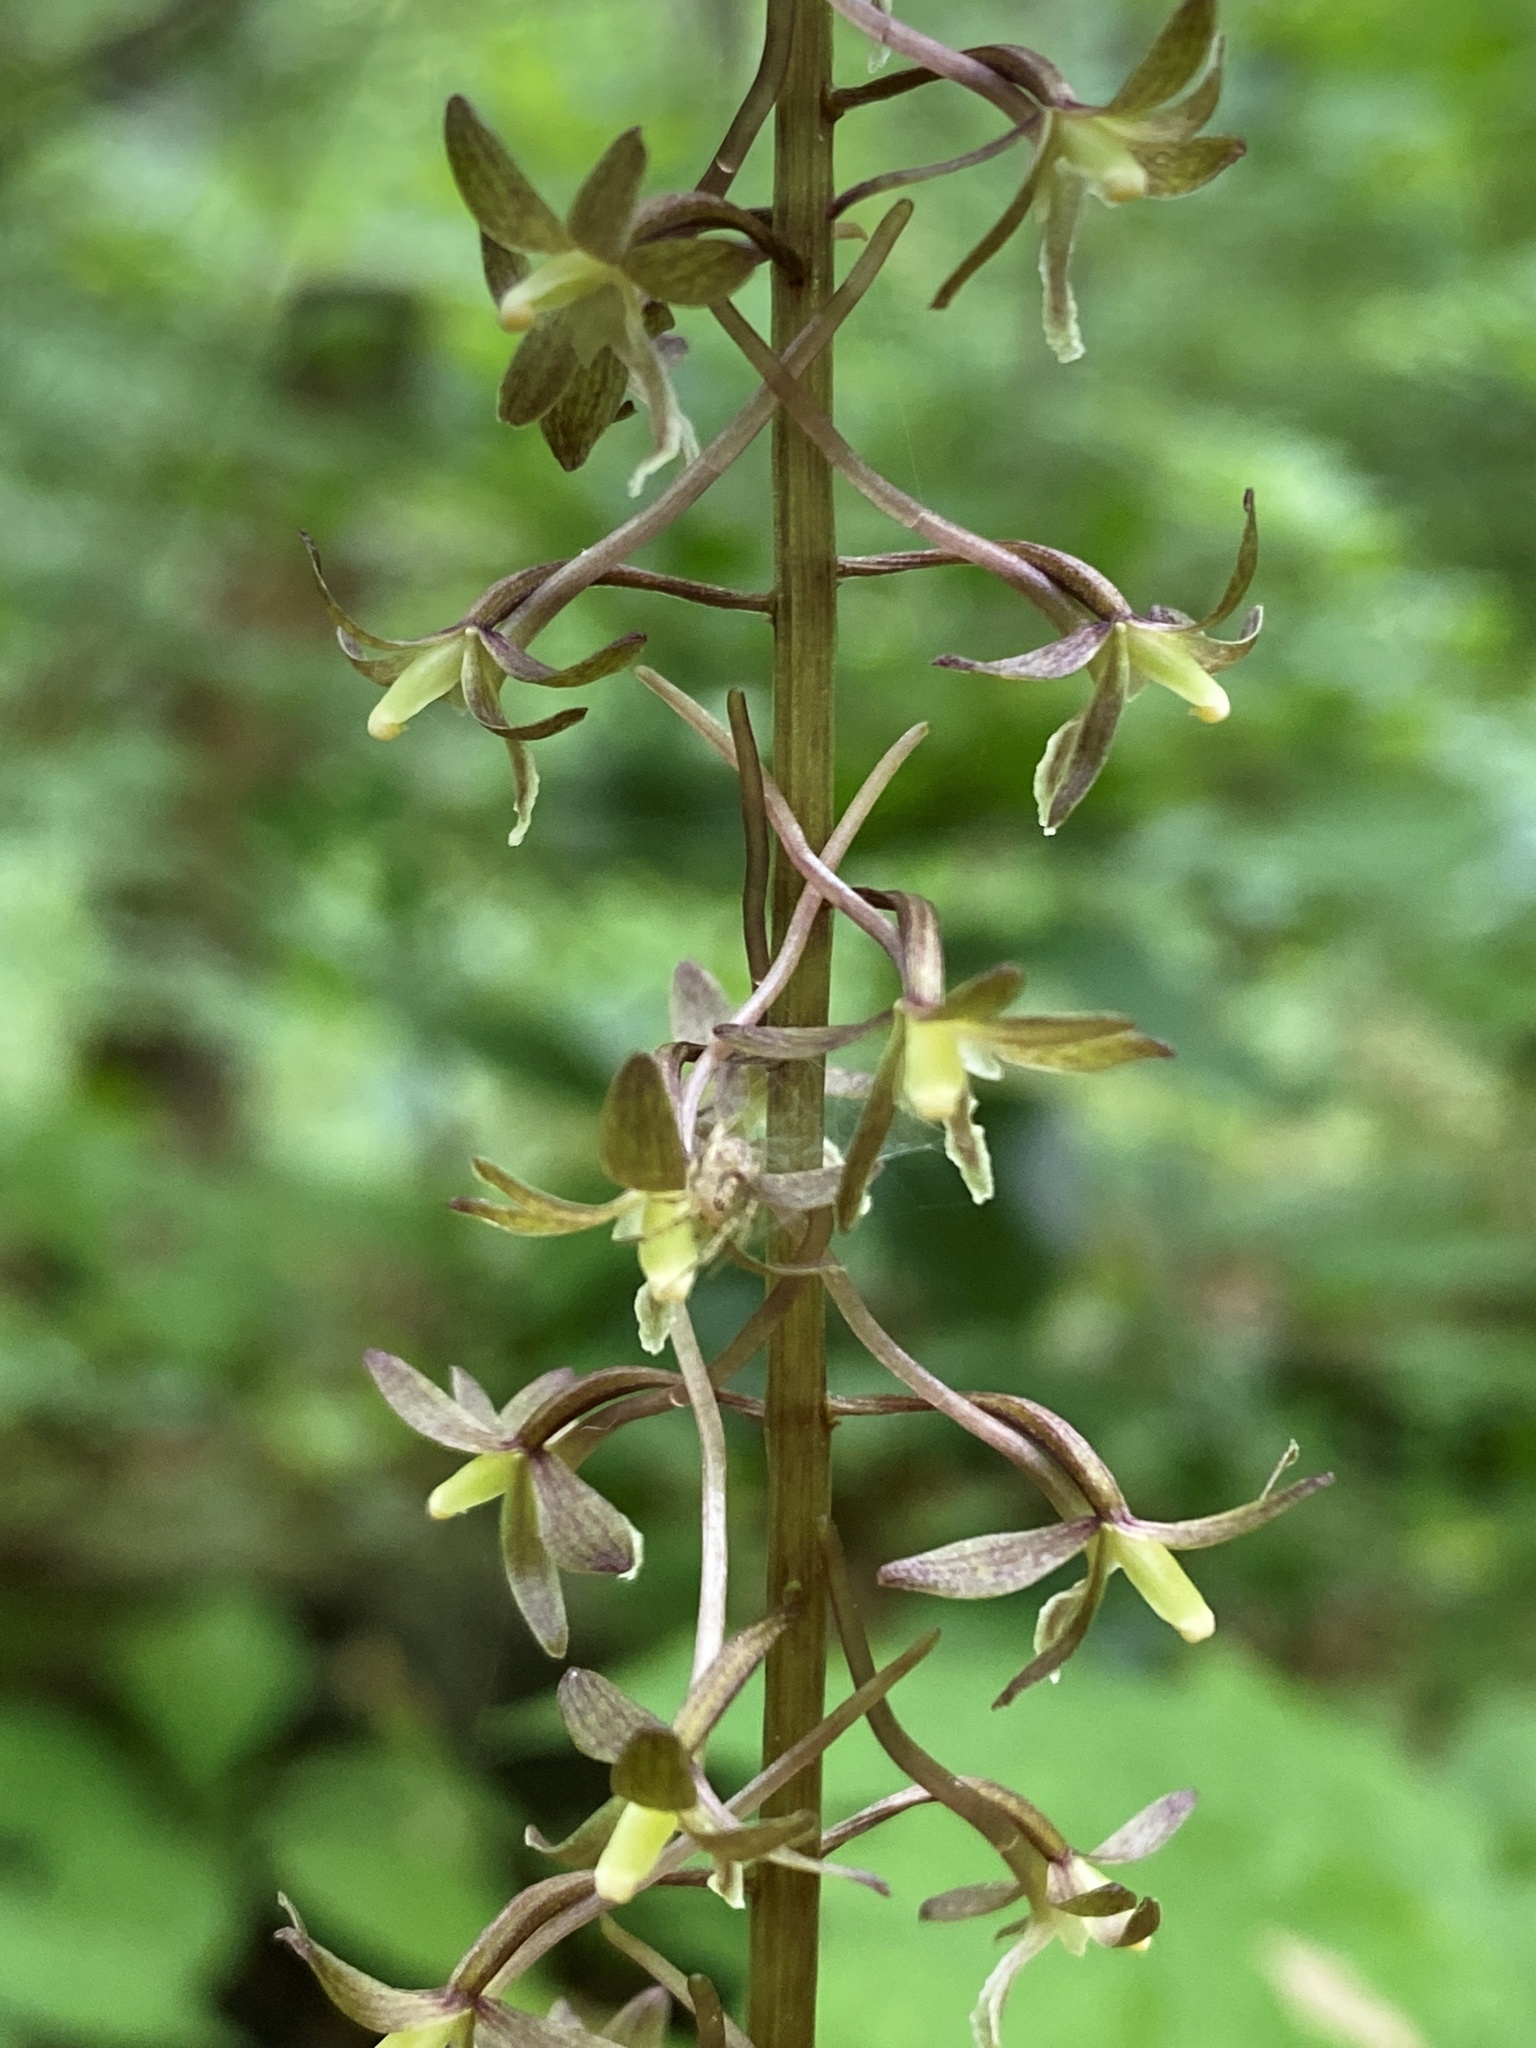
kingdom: Plantae
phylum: Tracheophyta
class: Liliopsida
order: Asparagales
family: Orchidaceae
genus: Tipularia
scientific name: Tipularia discolor
